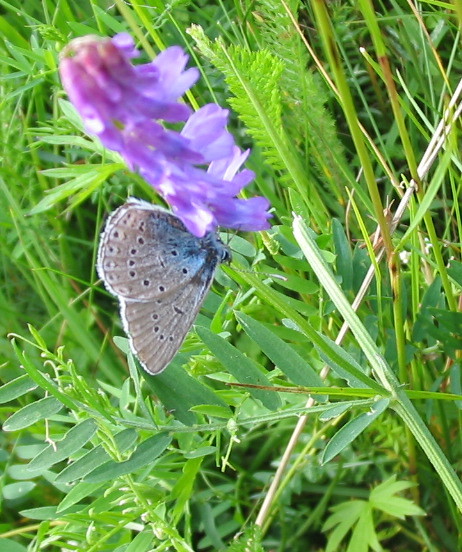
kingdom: Animalia
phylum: Arthropoda
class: Insecta
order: Lepidoptera
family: Lycaenidae
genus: Plebejus
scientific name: Plebejus amanda
